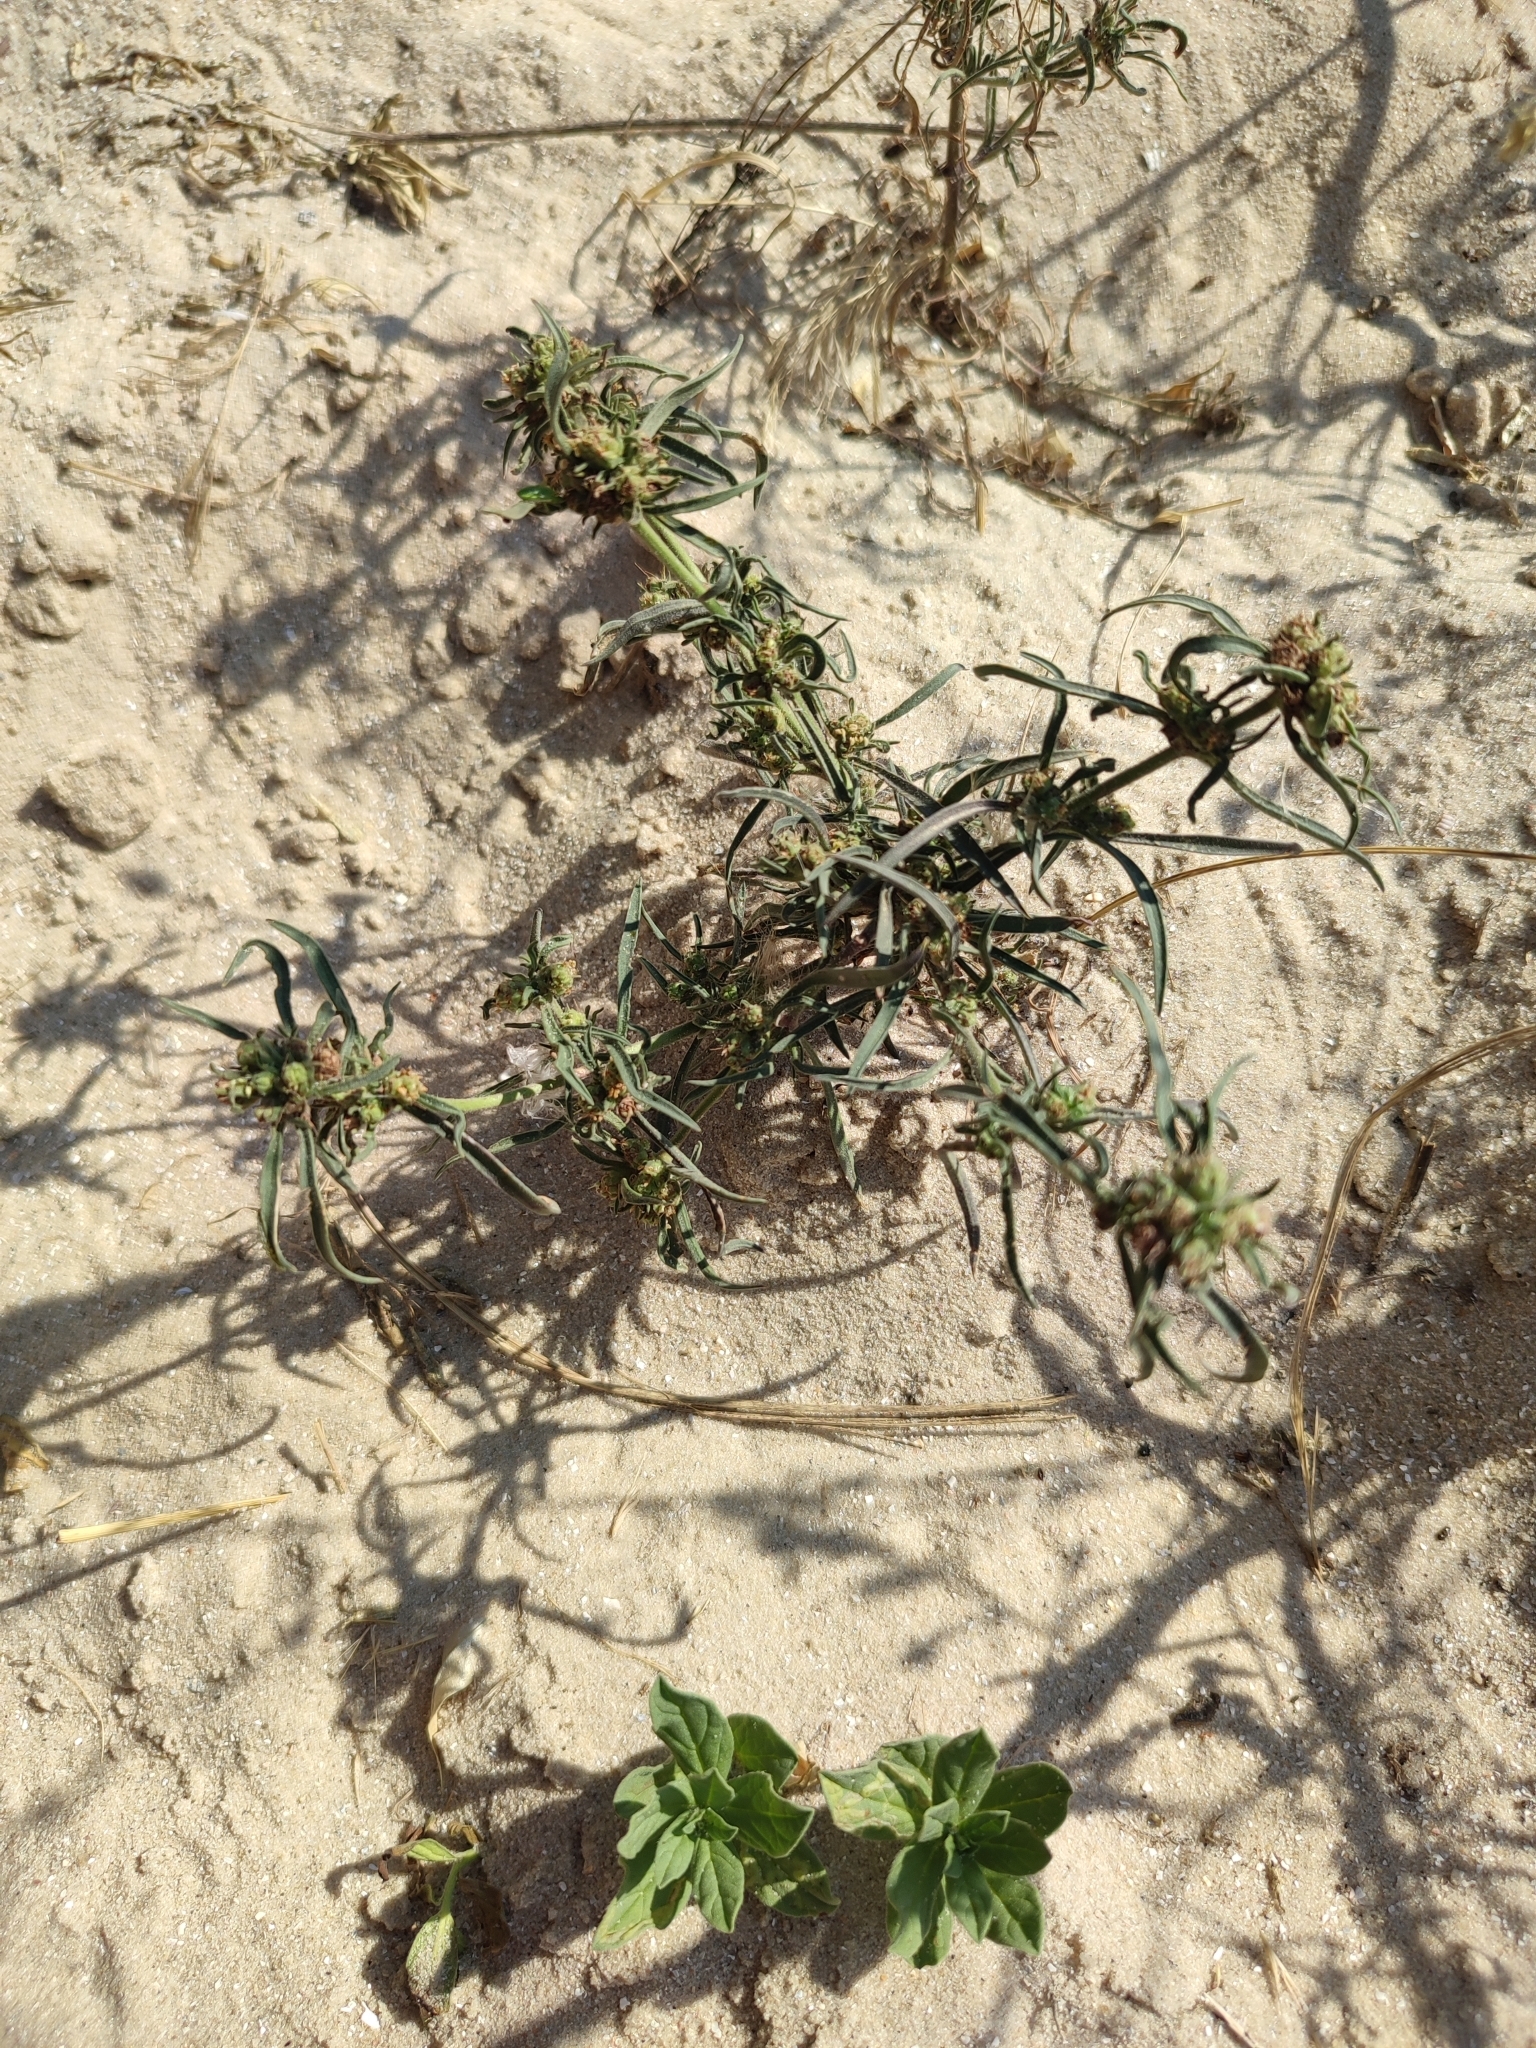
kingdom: Plantae
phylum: Tracheophyta
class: Magnoliopsida
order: Lamiales
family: Plantaginaceae
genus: Plantago
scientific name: Plantago arenaria
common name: Branched plantain
